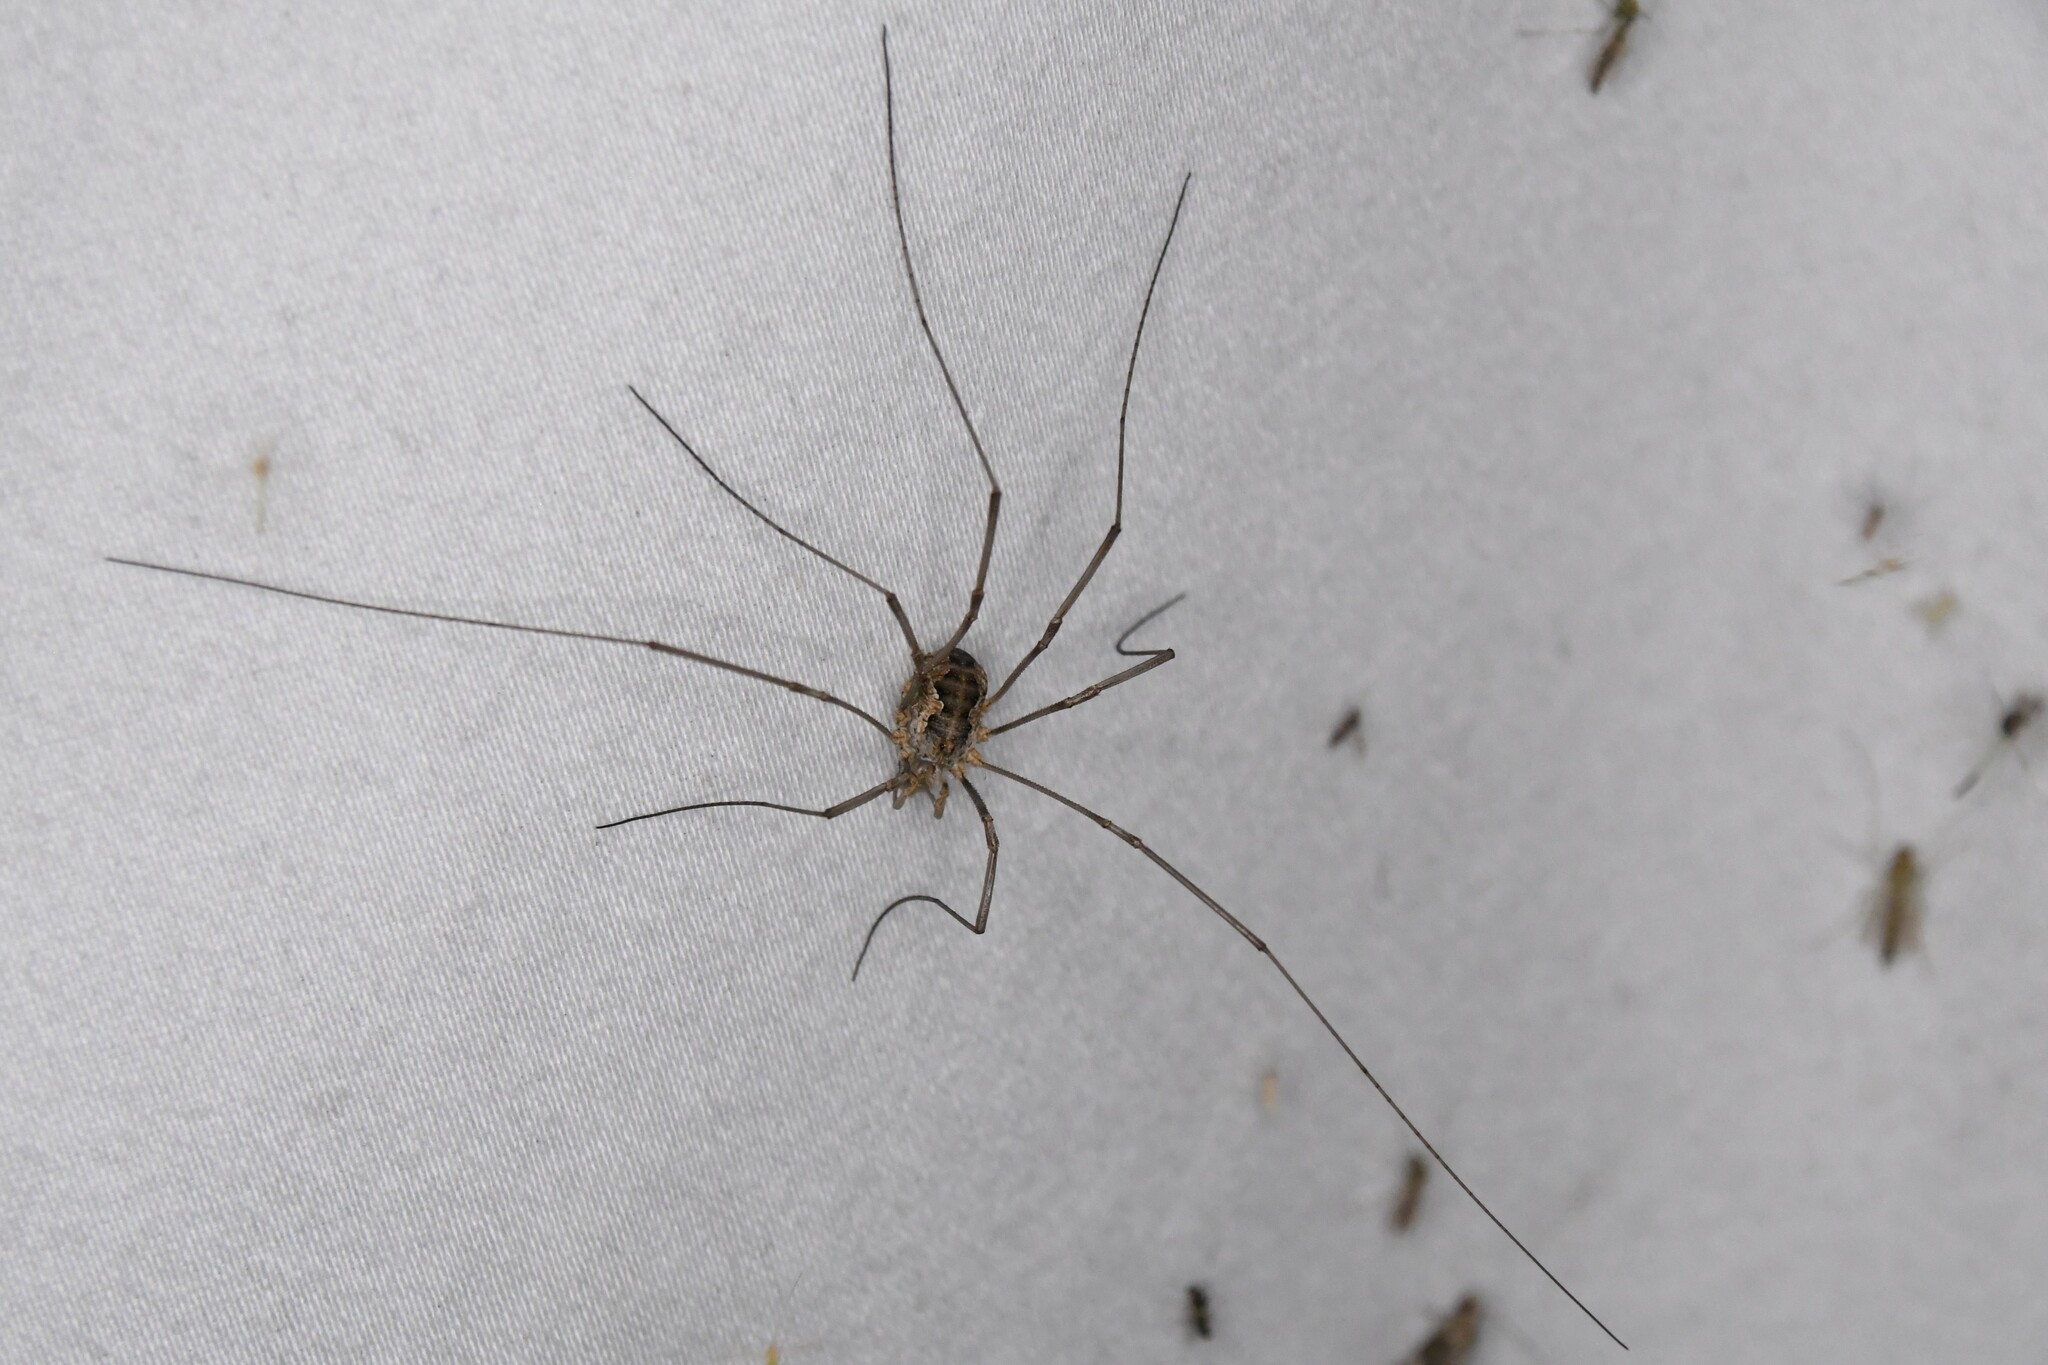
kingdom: Animalia
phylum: Arthropoda
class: Arachnida
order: Opiliones
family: Phalangiidae
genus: Phalangium
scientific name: Phalangium opilio
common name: Daddy longleg
